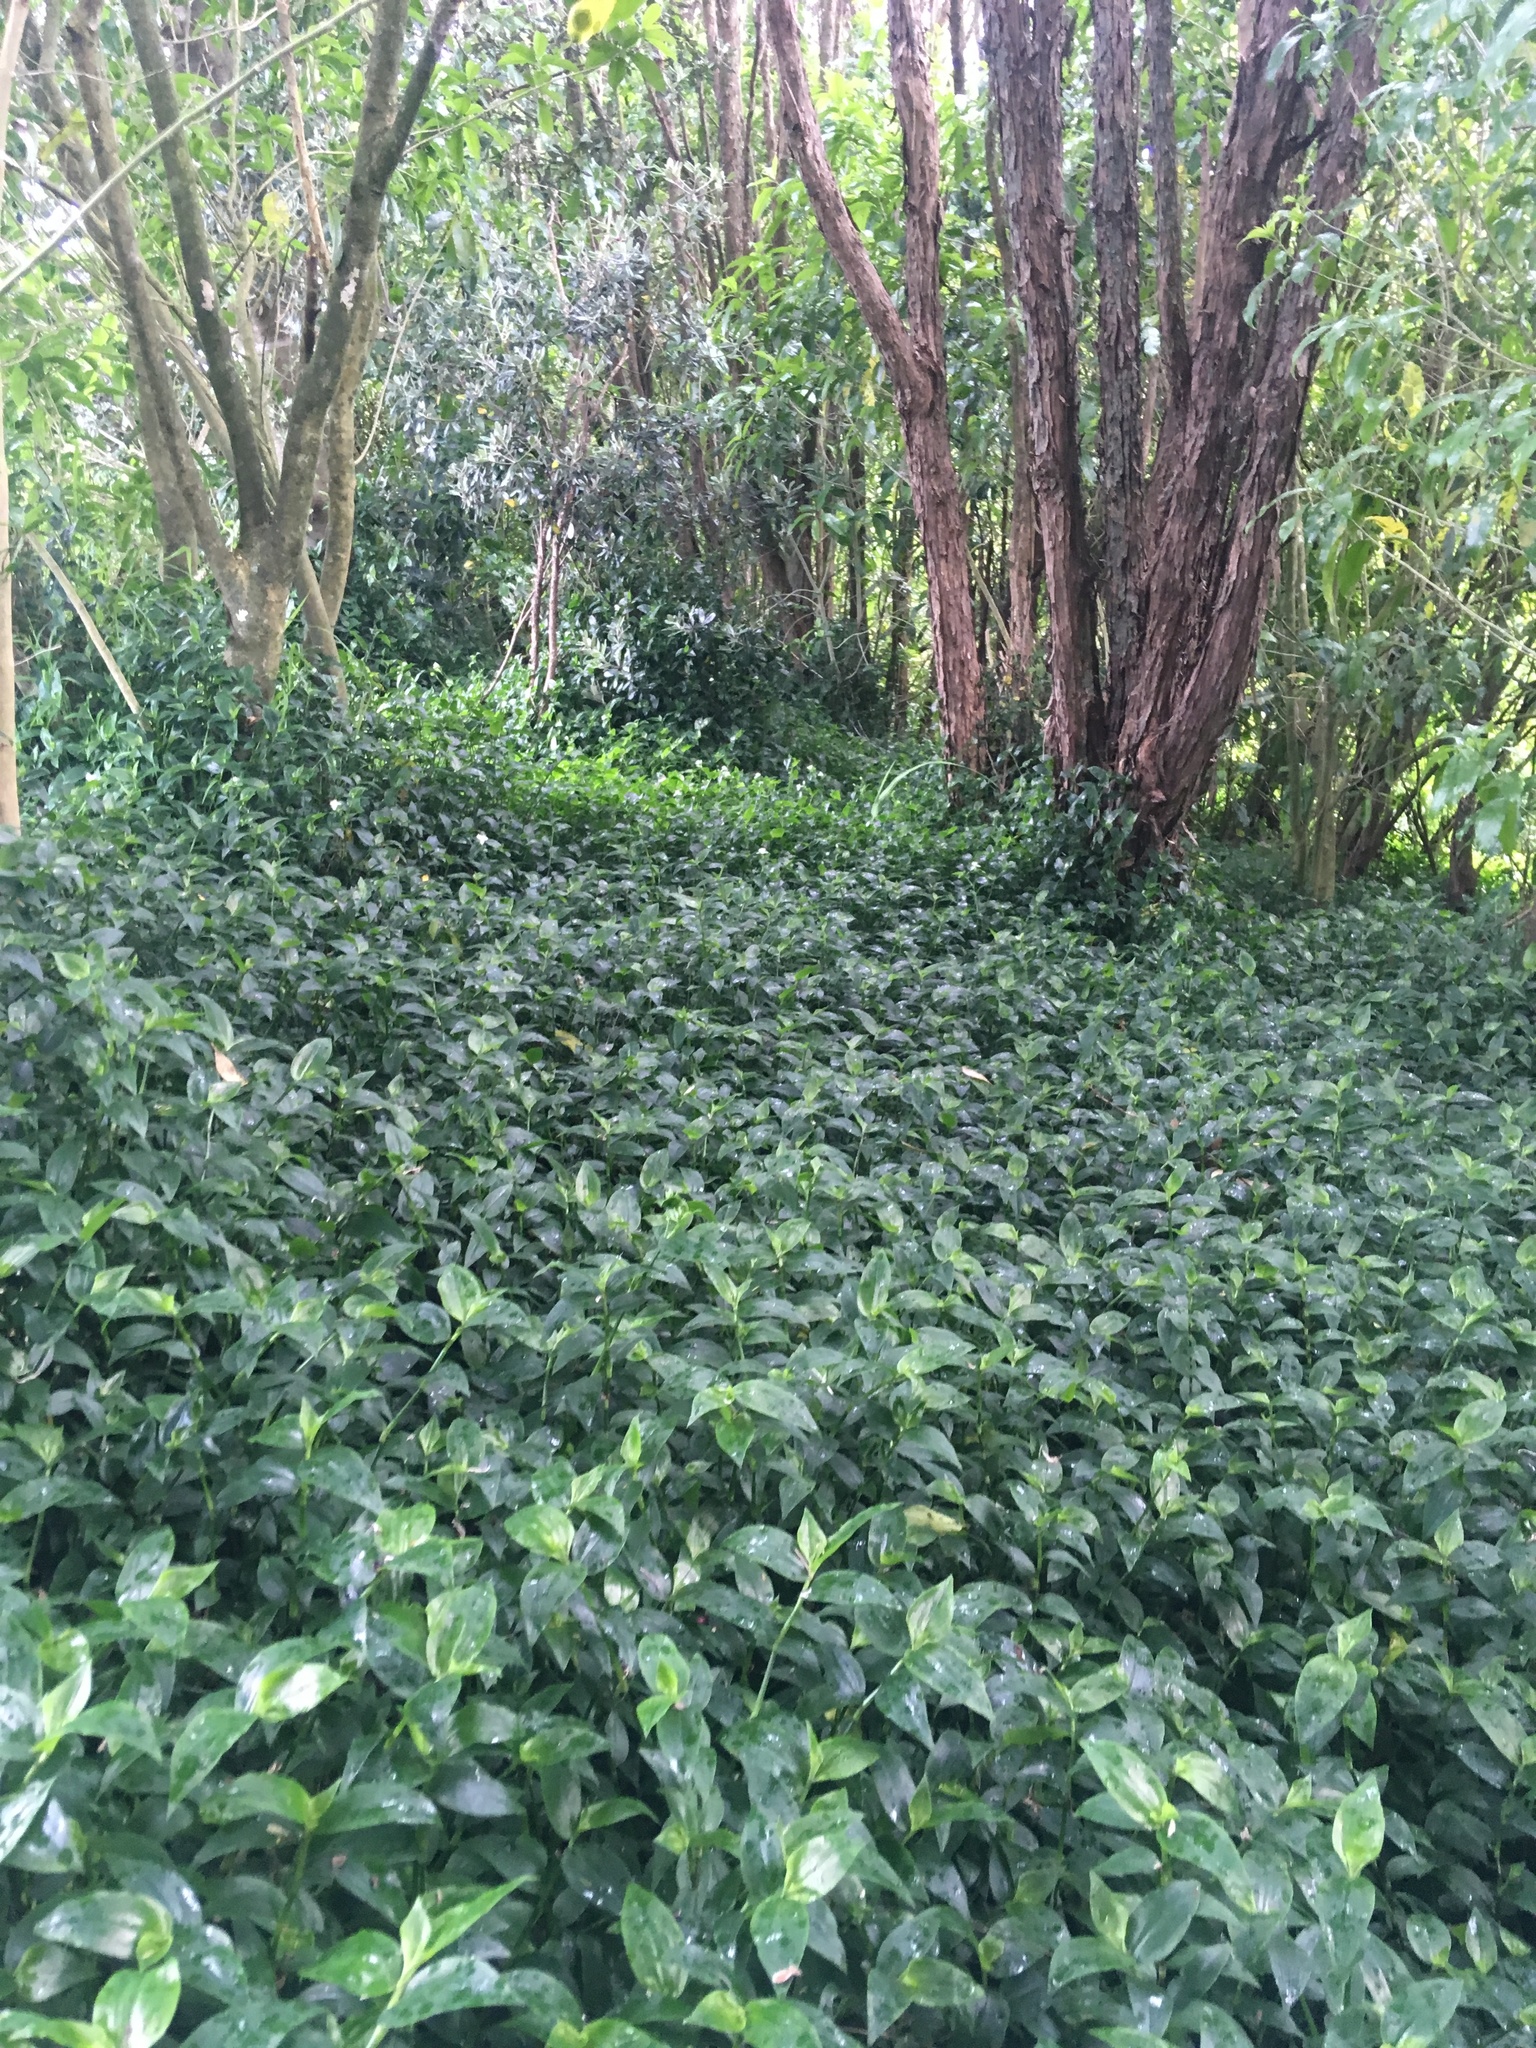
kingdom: Plantae
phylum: Tracheophyta
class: Liliopsida
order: Commelinales
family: Commelinaceae
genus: Tradescantia
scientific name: Tradescantia fluminensis
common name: Wandering-jew
